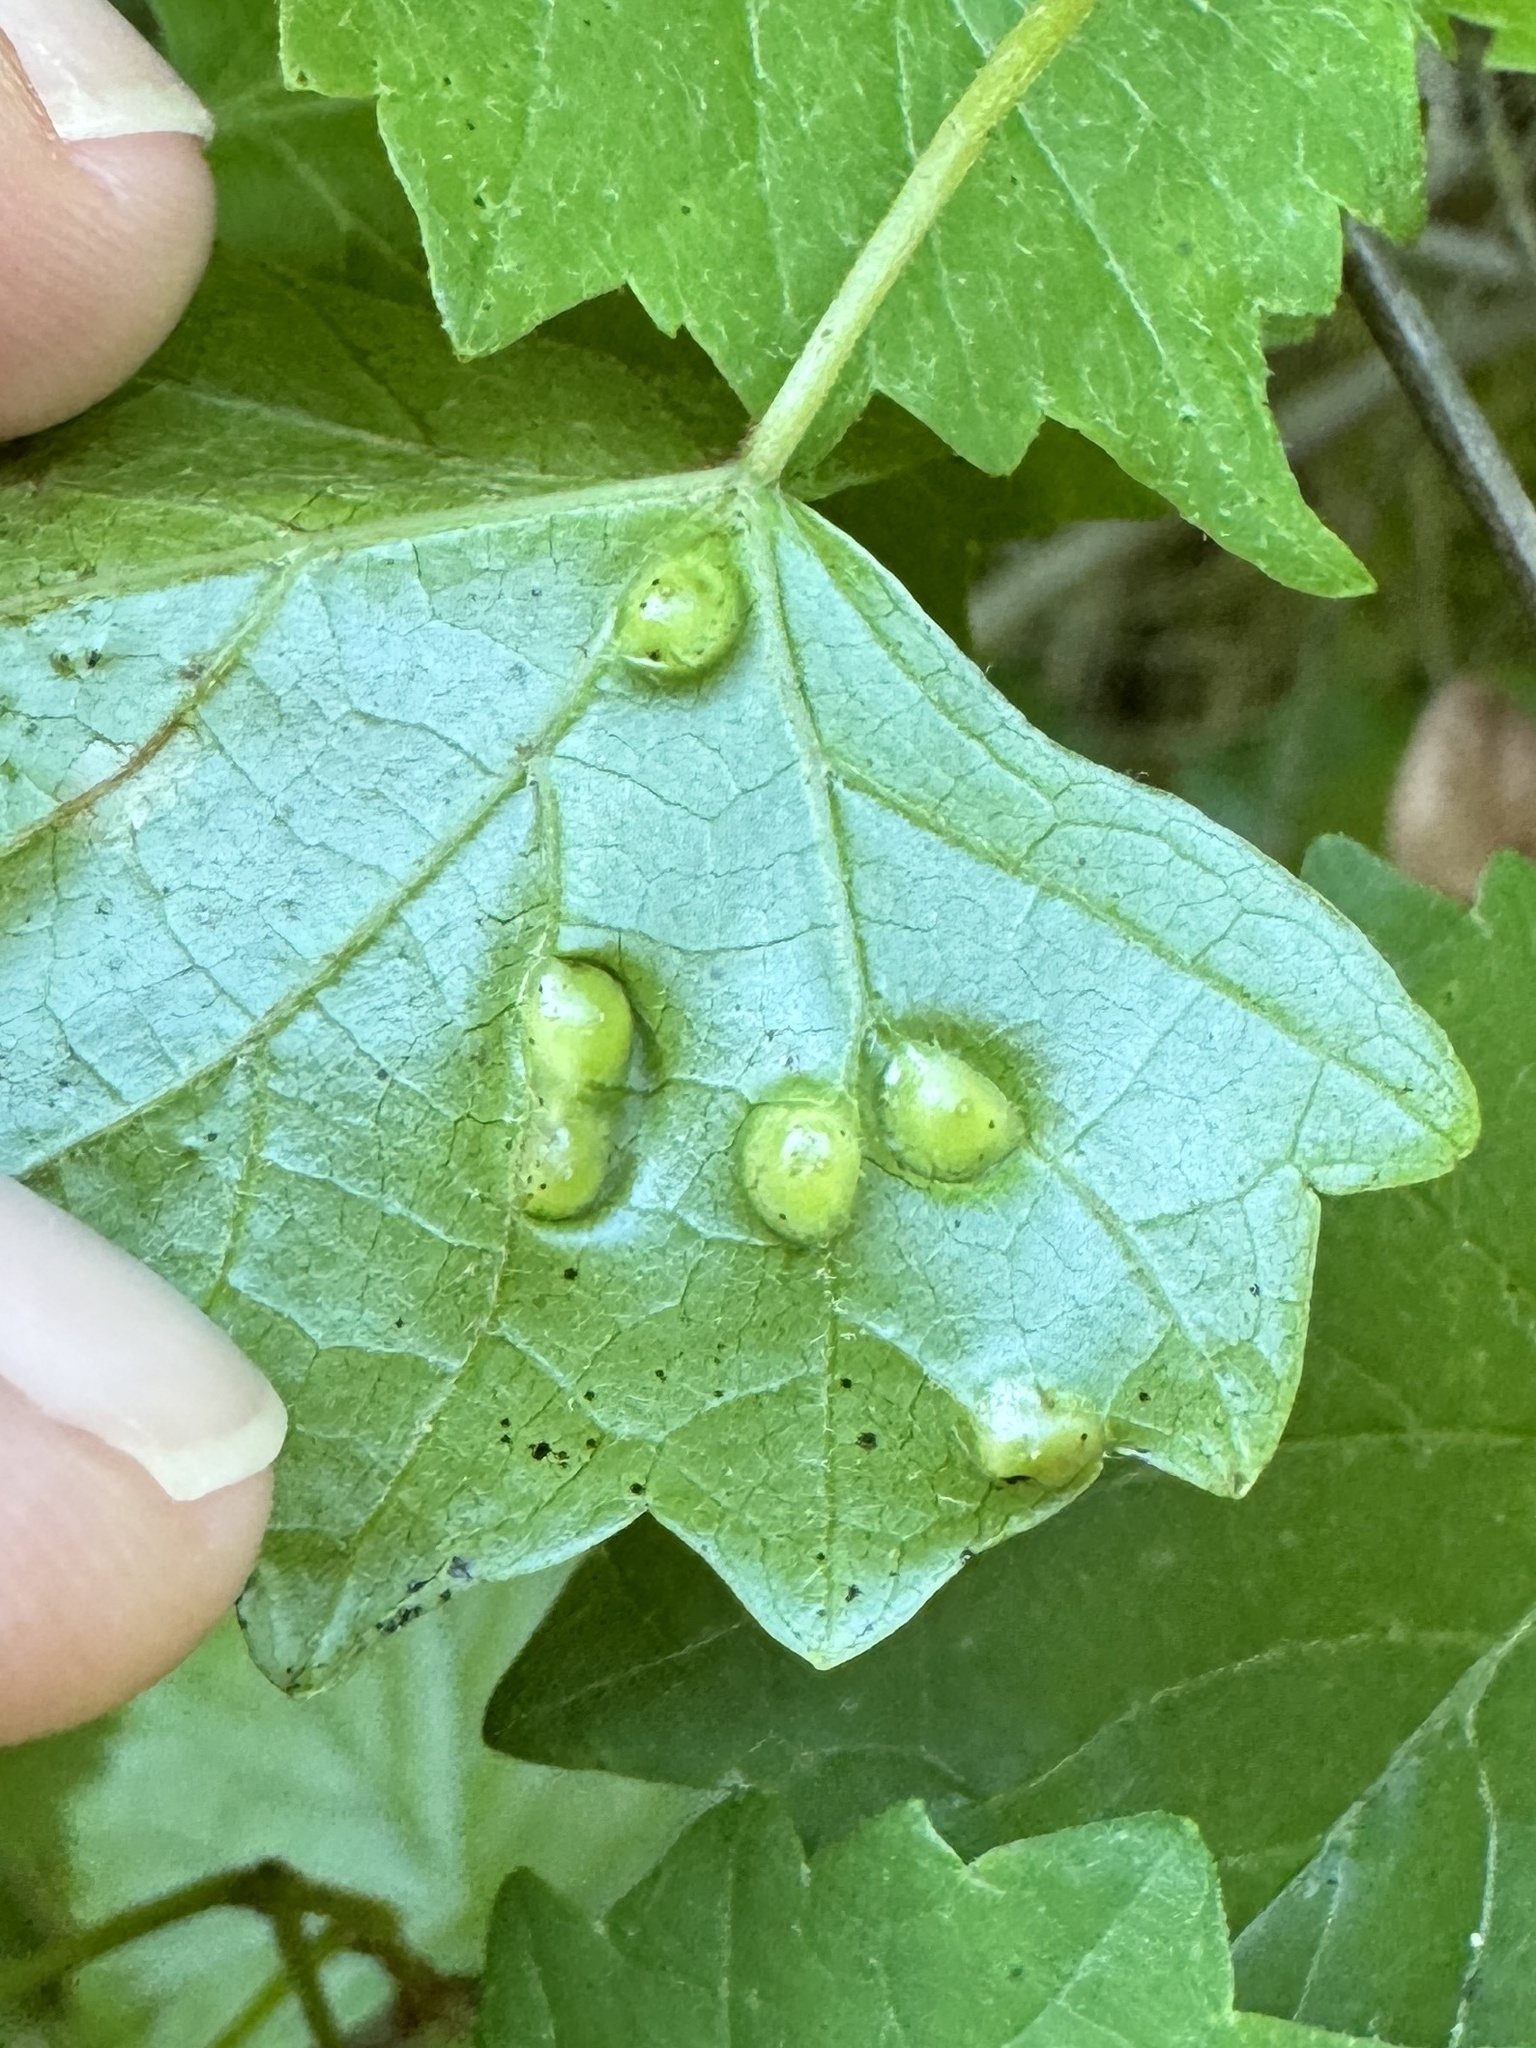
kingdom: Animalia
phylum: Arthropoda
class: Insecta
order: Diptera
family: Cecidomyiidae
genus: Vitisiella
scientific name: Vitisiella brevicauda
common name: Grape tumid gallmaker midge
